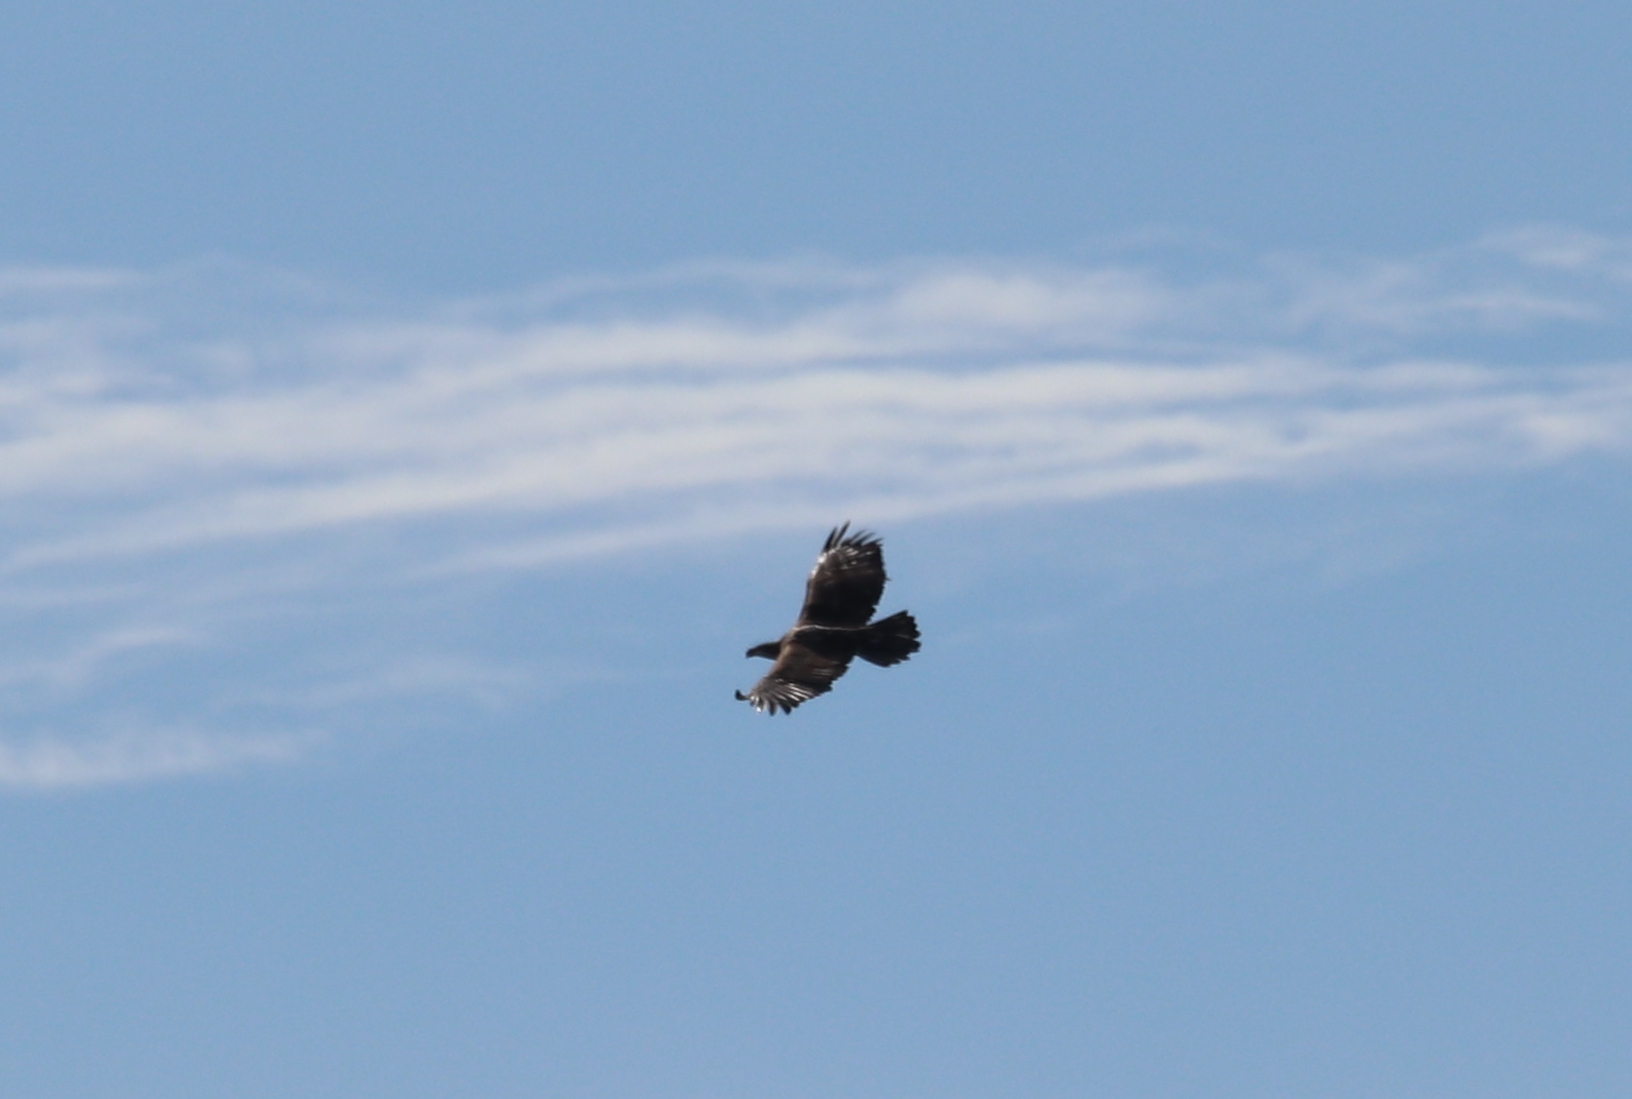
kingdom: Animalia
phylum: Chordata
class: Aves
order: Accipitriformes
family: Accipitridae
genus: Haliaeetus
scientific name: Haliaeetus leucocephalus
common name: Bald eagle
